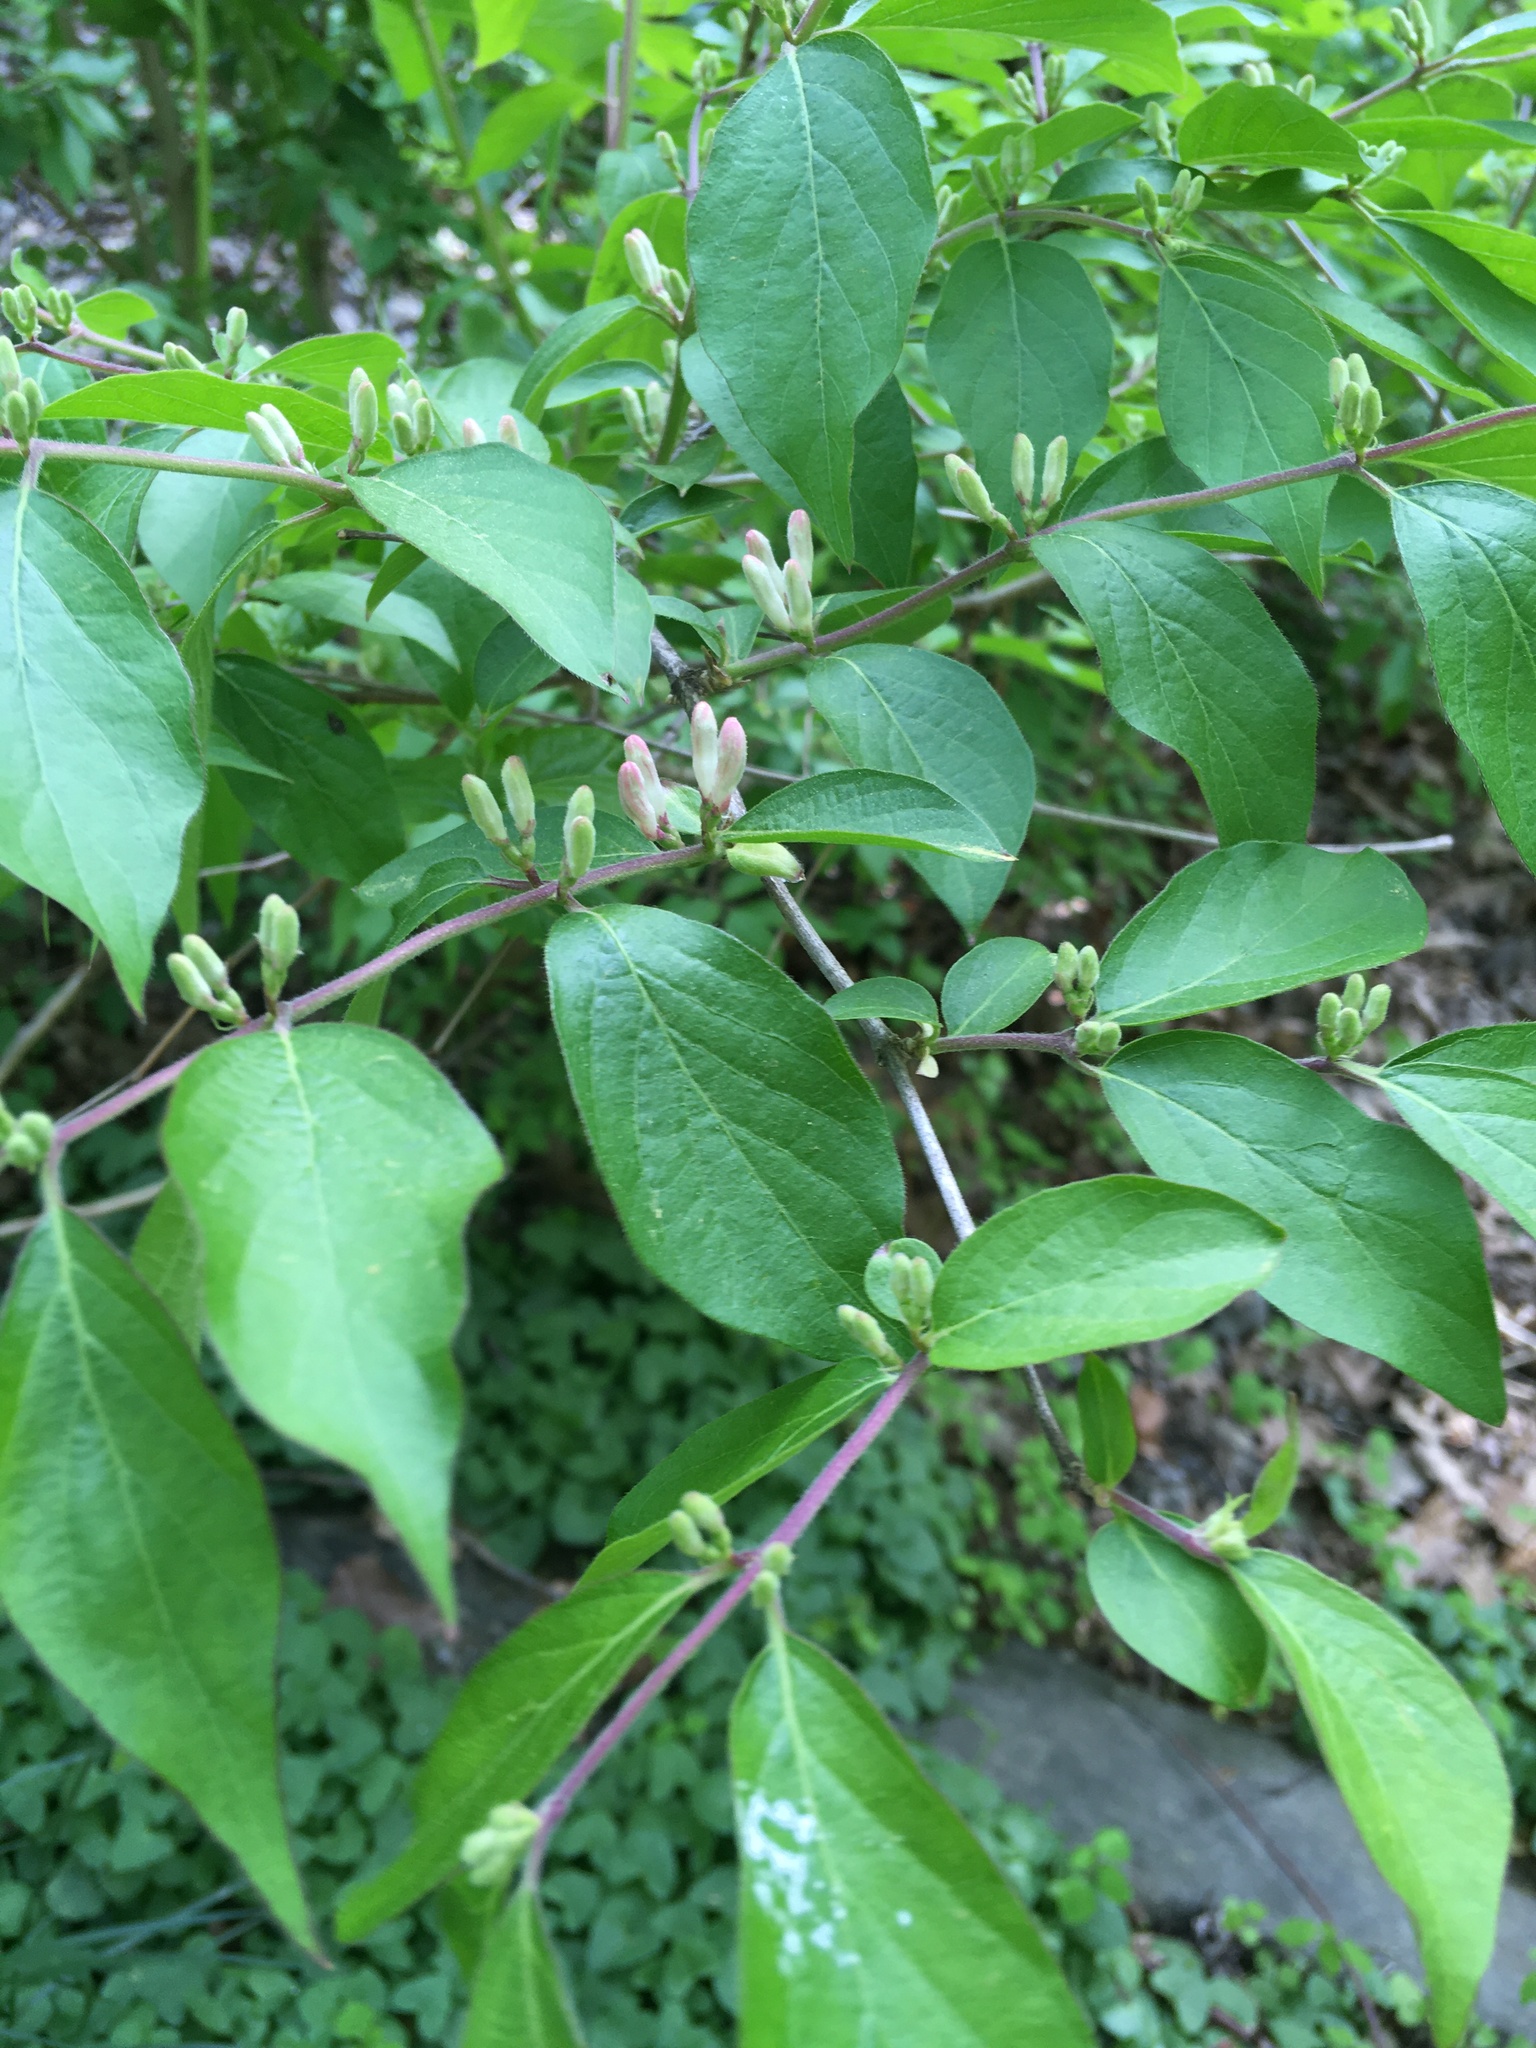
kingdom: Plantae
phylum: Tracheophyta
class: Magnoliopsida
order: Dipsacales
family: Caprifoliaceae
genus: Lonicera
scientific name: Lonicera maackii
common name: Amur honeysuckle
